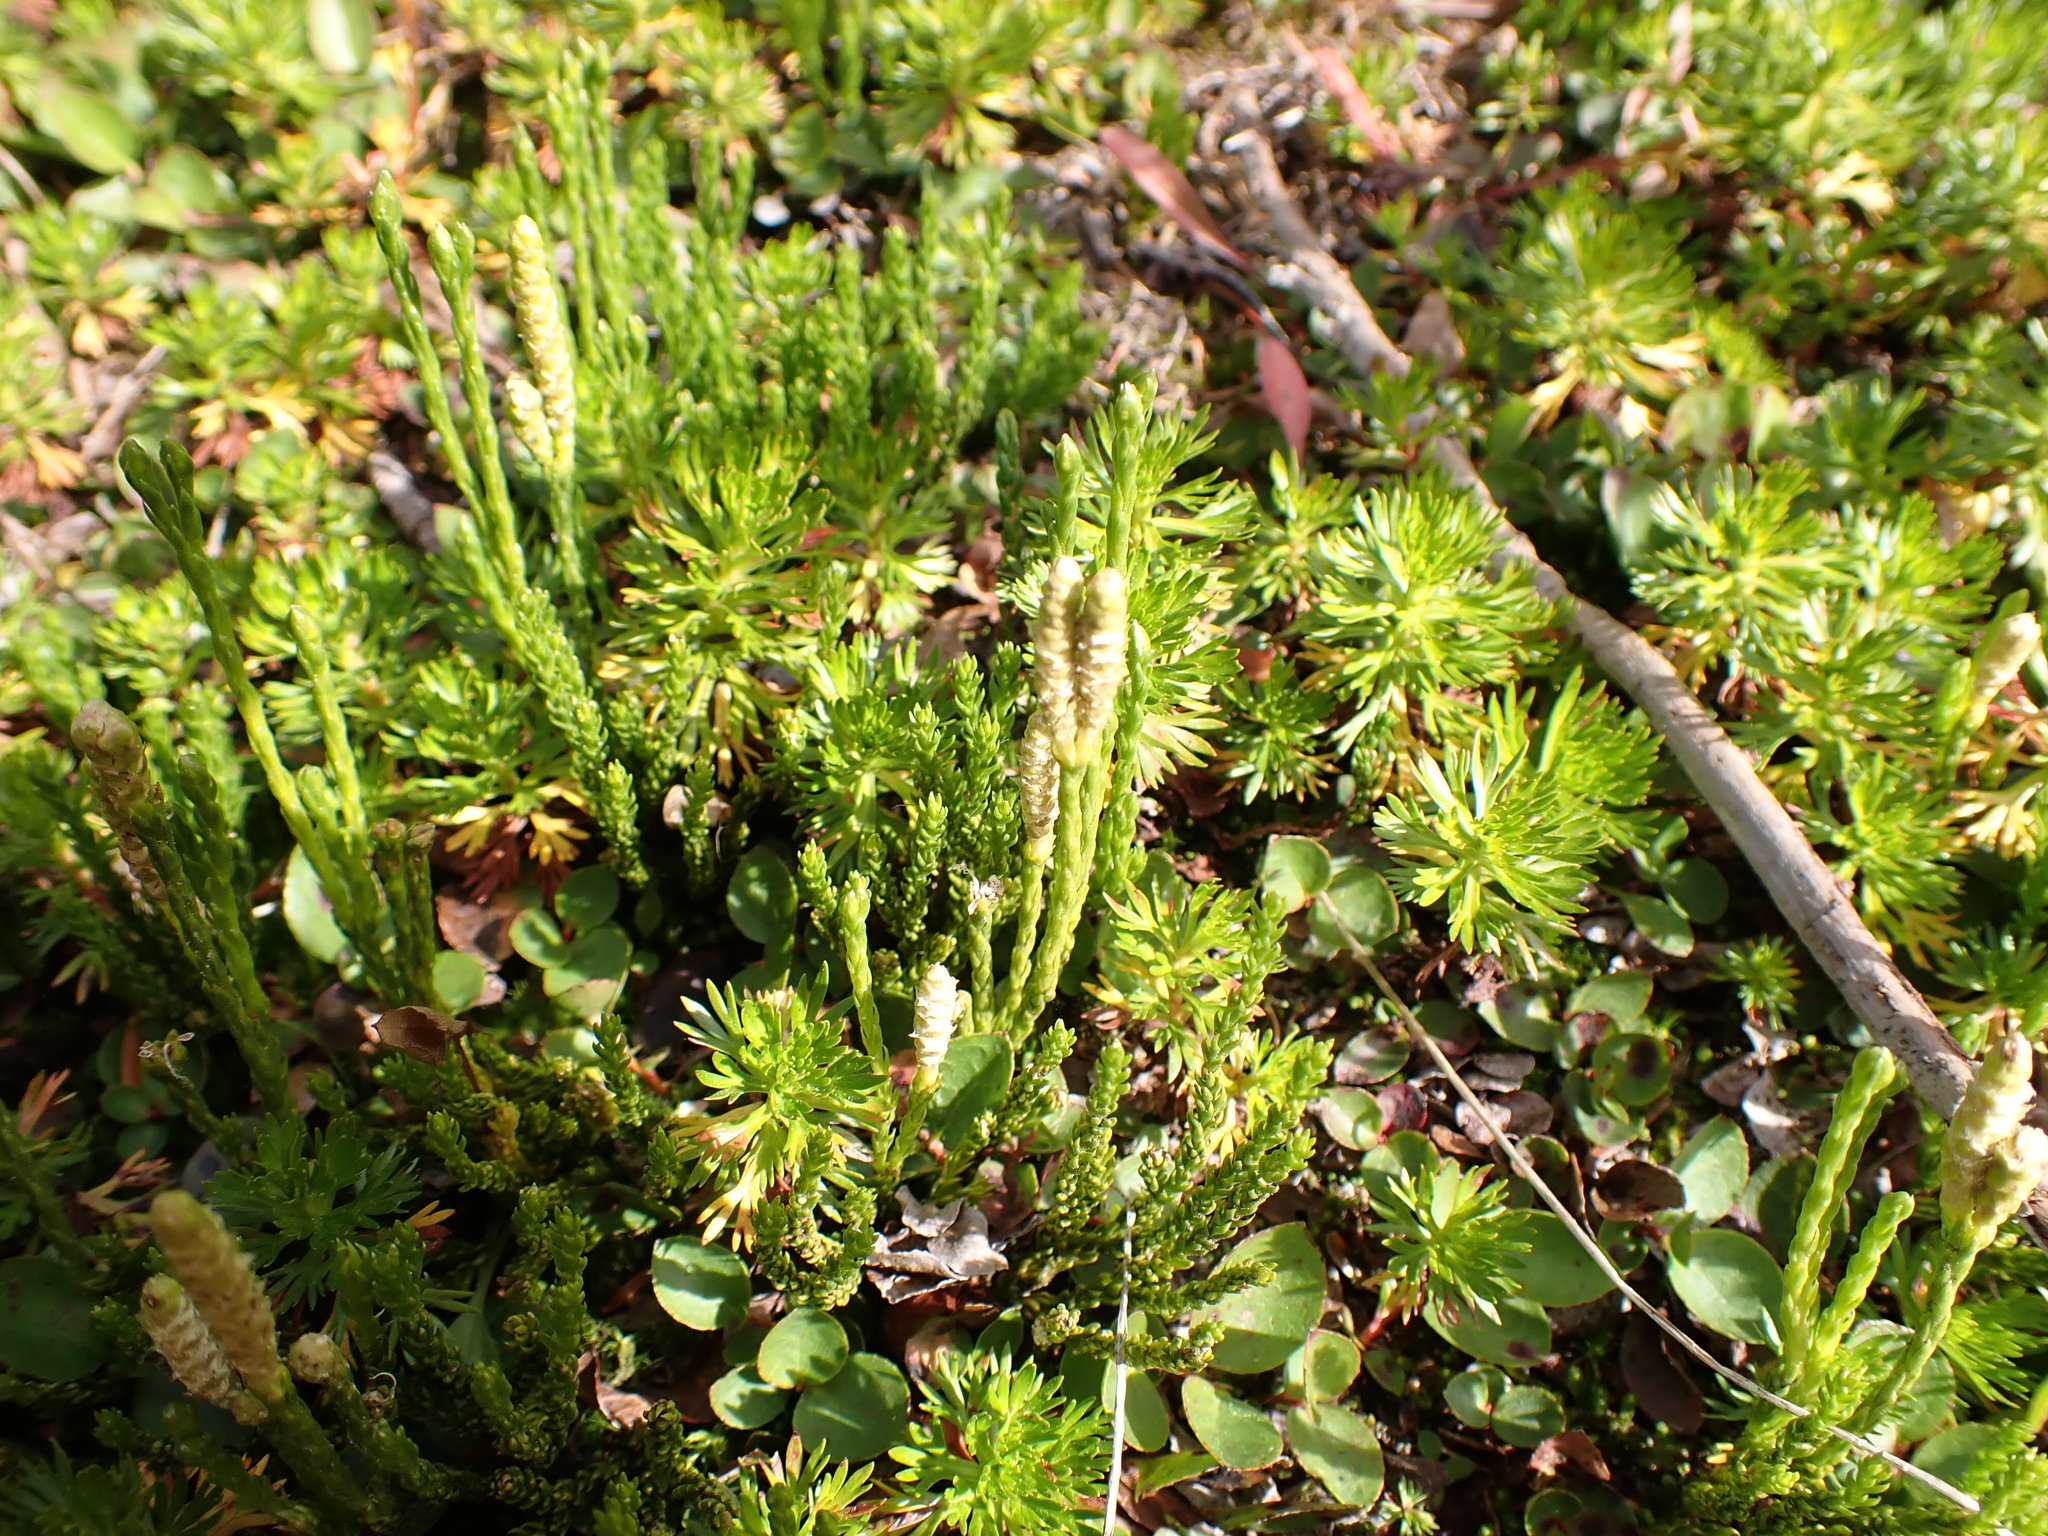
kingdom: Plantae
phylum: Tracheophyta
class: Lycopodiopsida
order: Lycopodiales
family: Lycopodiaceae
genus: Diphasiastrum
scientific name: Diphasiastrum sitchense
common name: Alaska clubmoss
